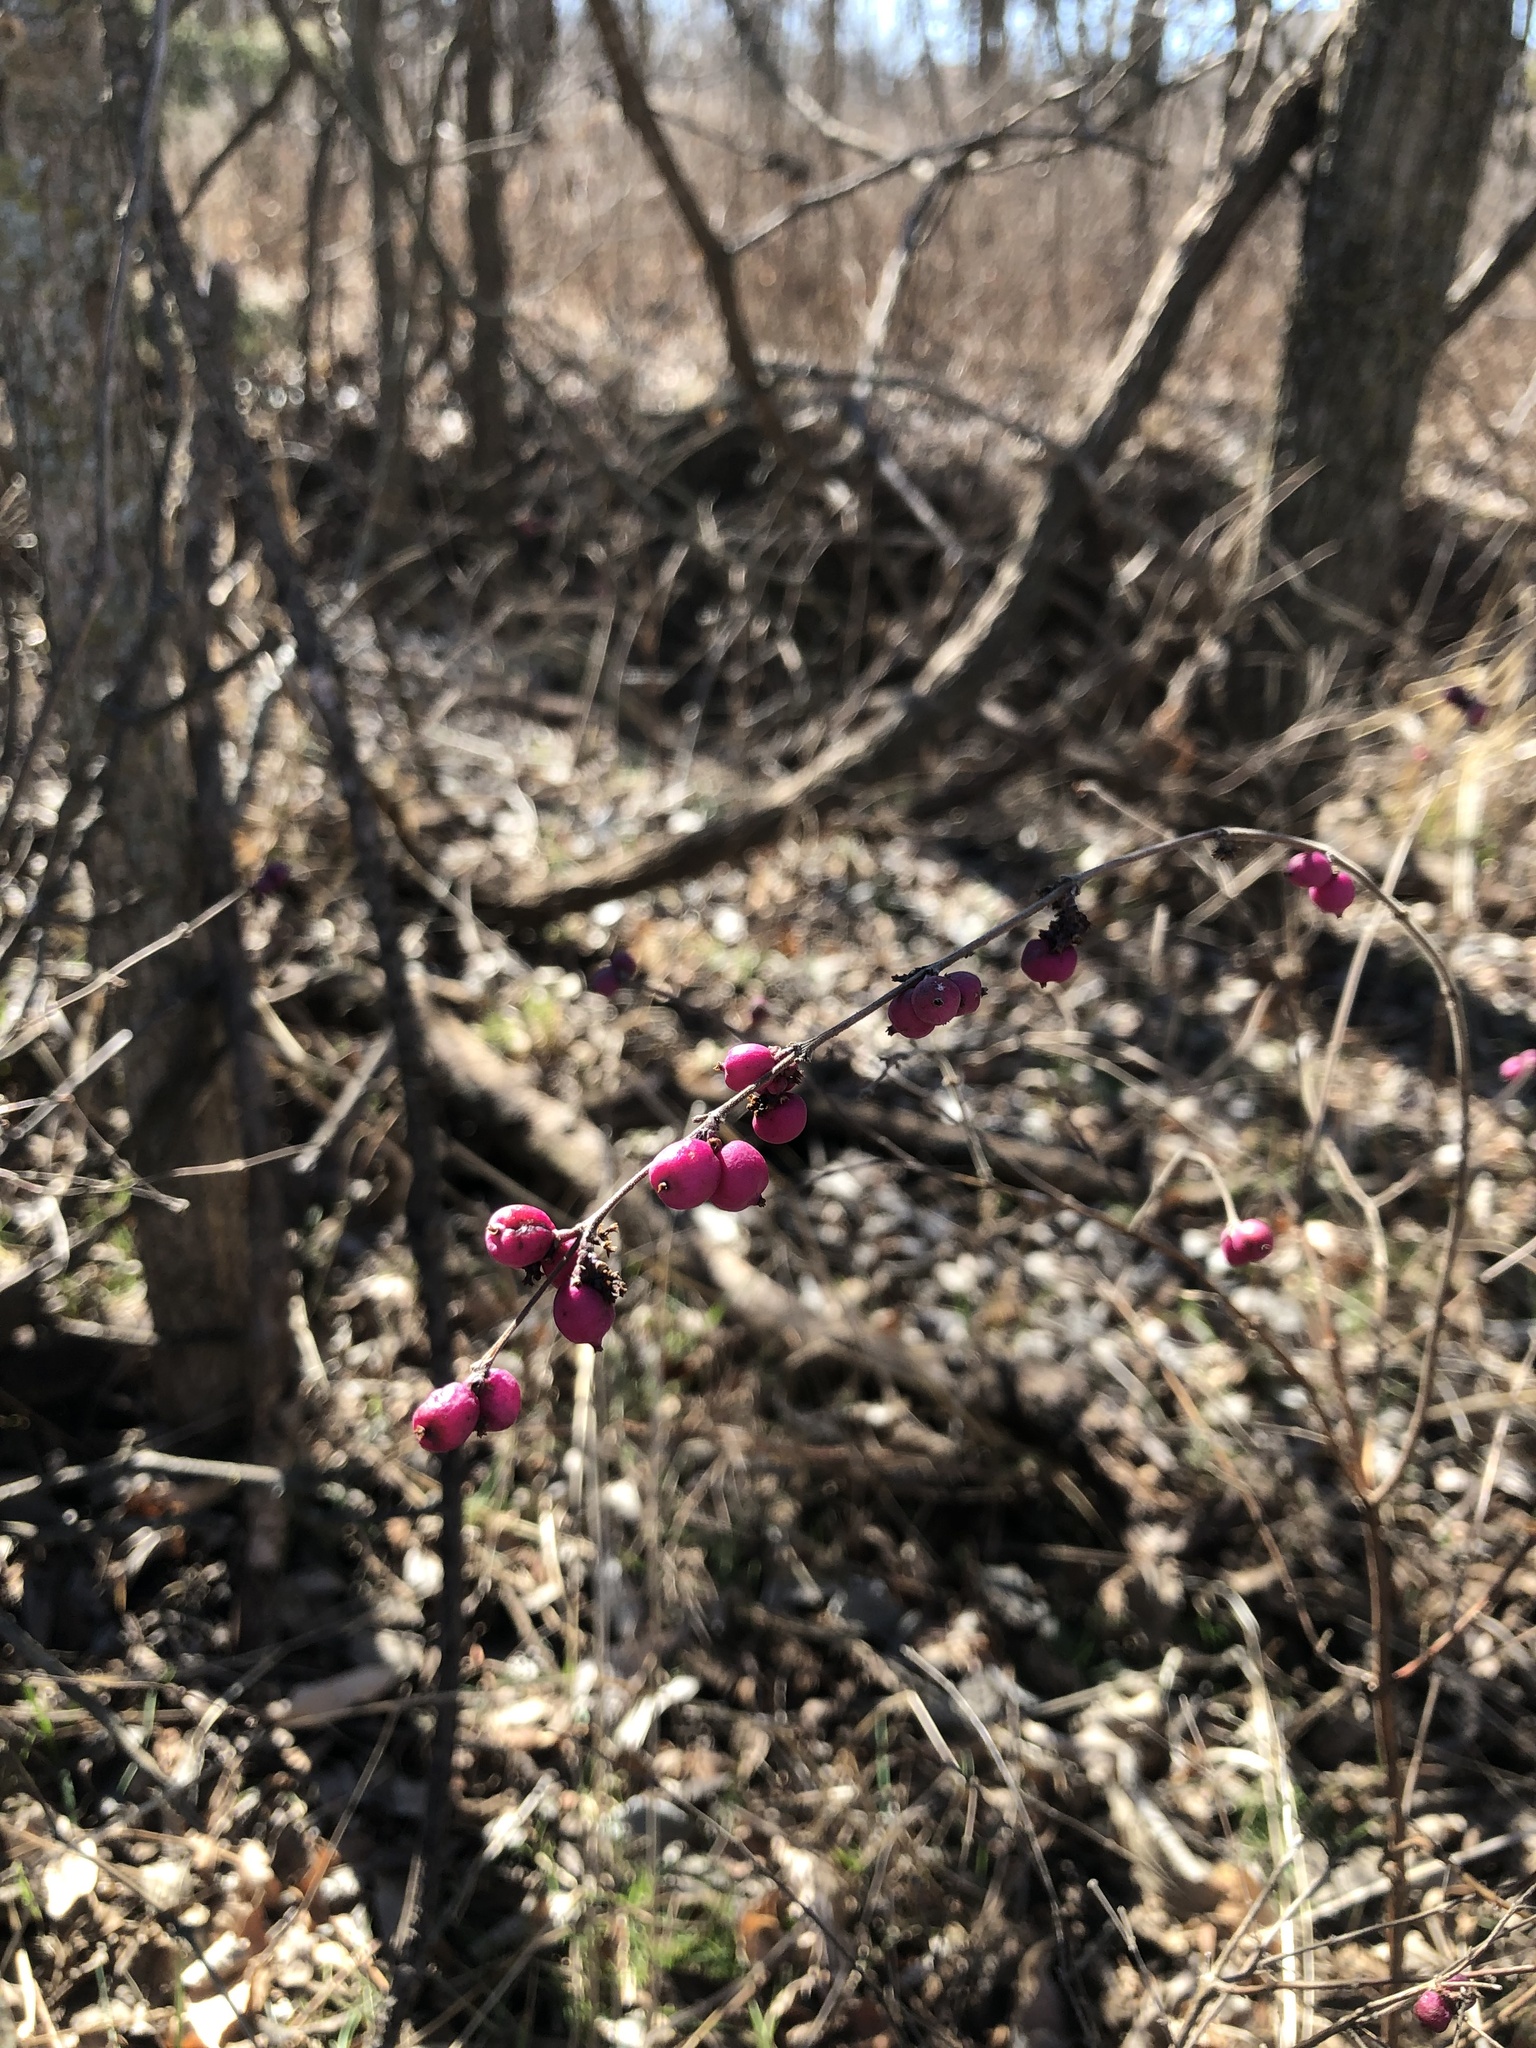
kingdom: Plantae
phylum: Tracheophyta
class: Magnoliopsida
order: Dipsacales
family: Caprifoliaceae
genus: Symphoricarpos
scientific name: Symphoricarpos orbiculatus
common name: Coralberry
